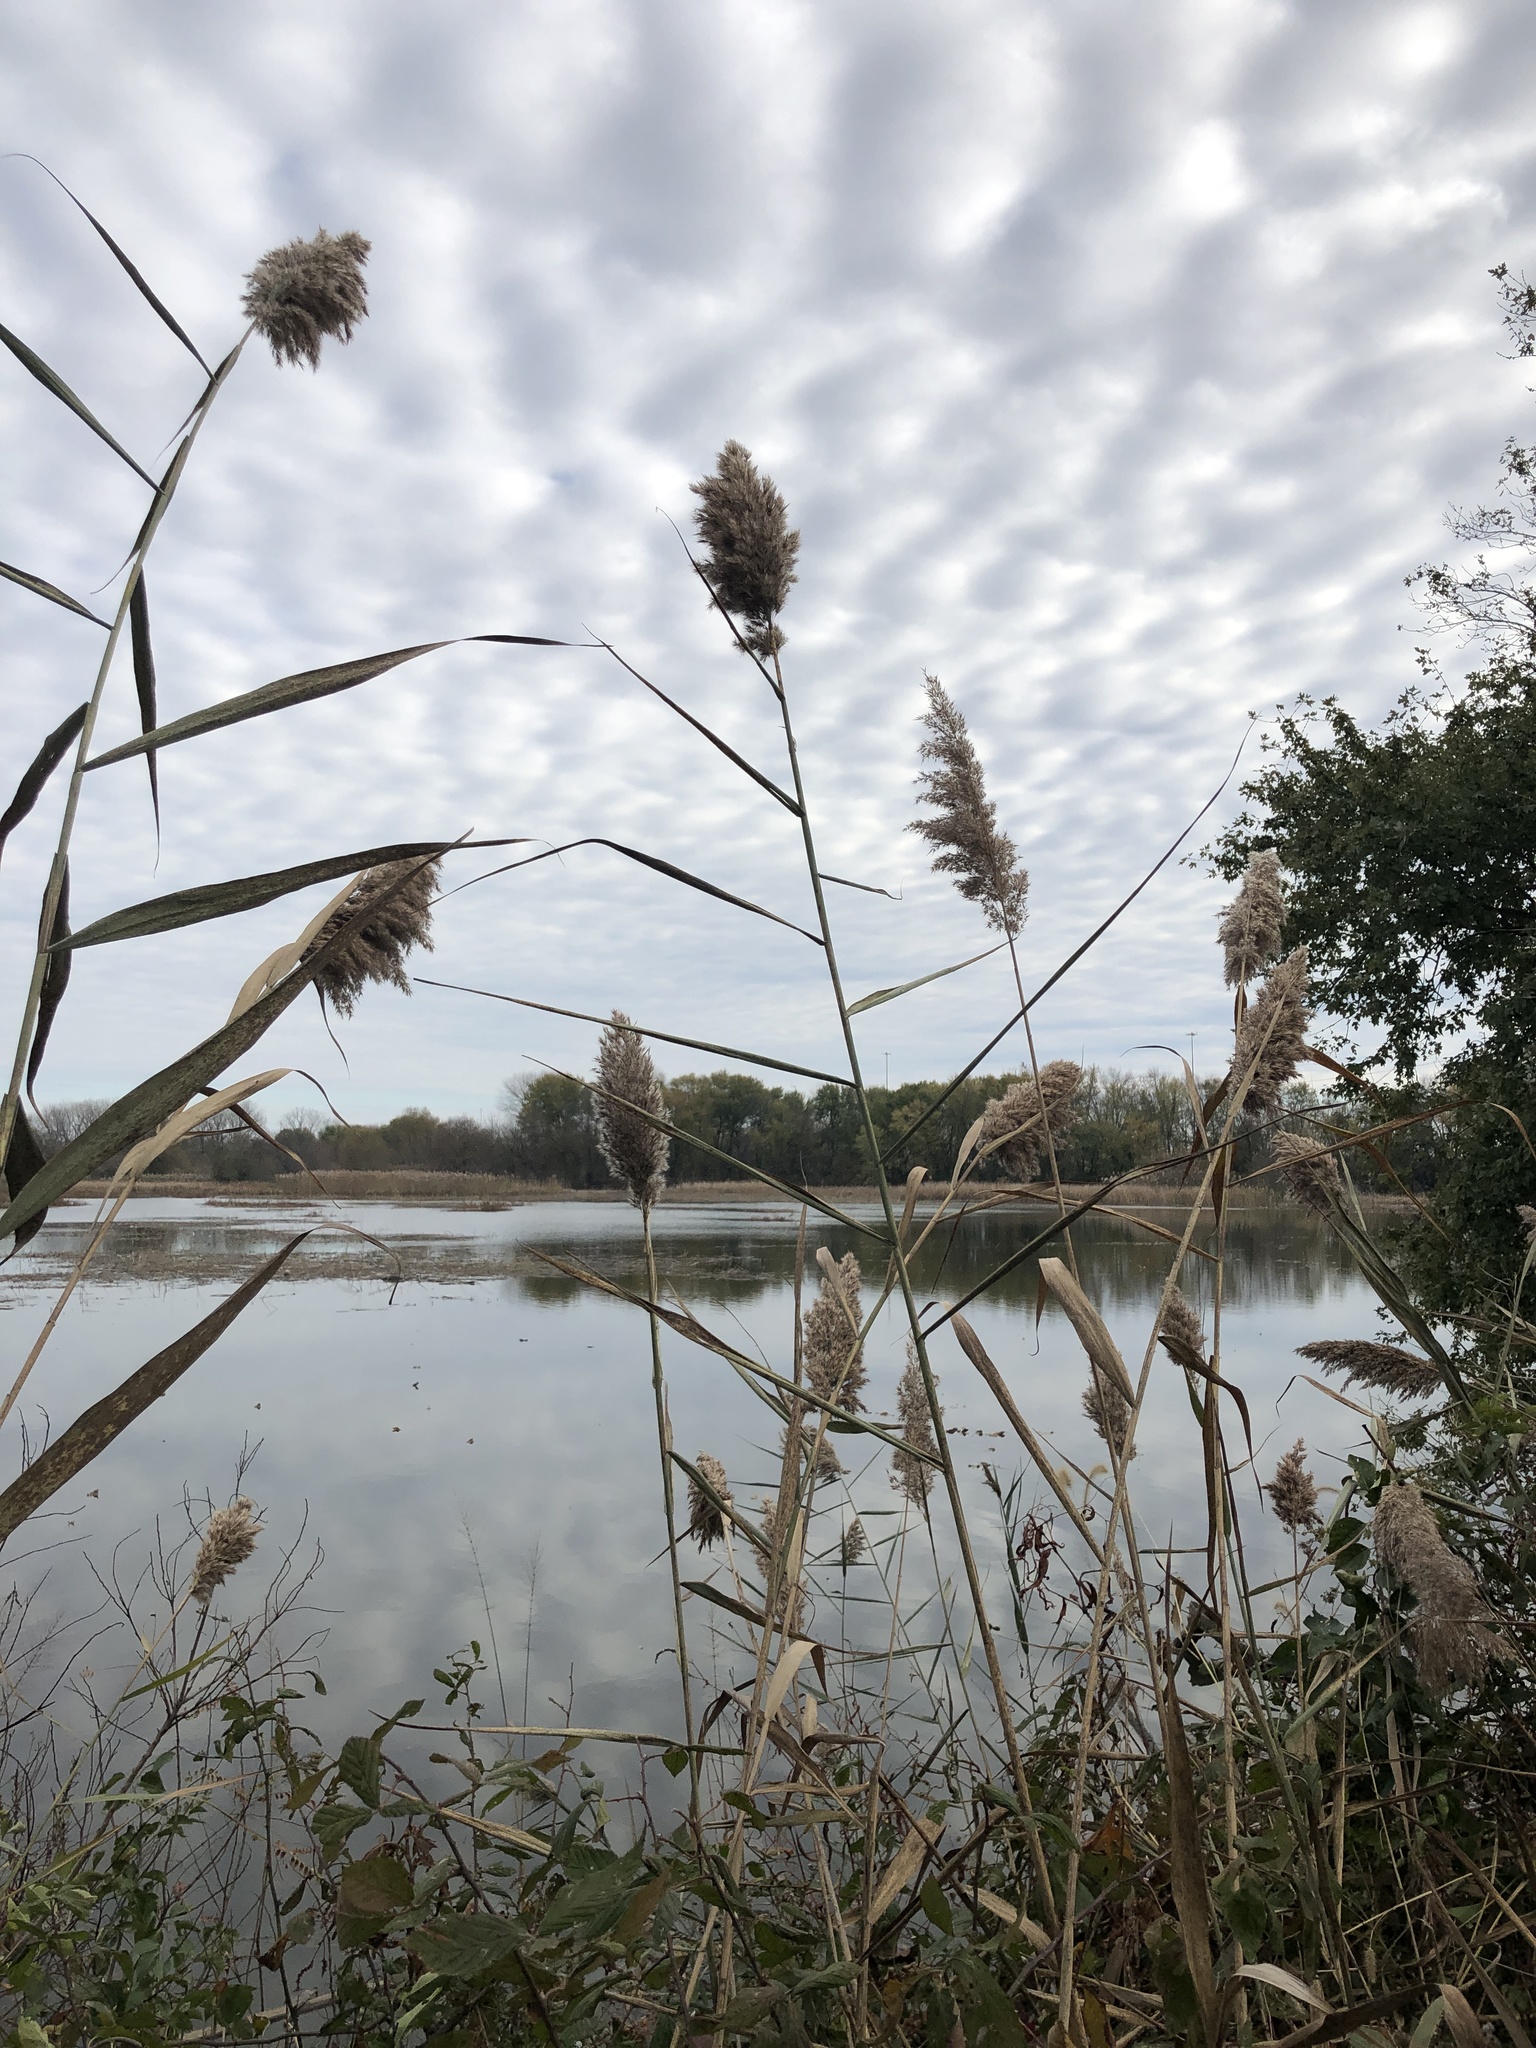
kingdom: Plantae
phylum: Tracheophyta
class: Liliopsida
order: Poales
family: Poaceae
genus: Phragmites
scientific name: Phragmites australis
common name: Common reed
